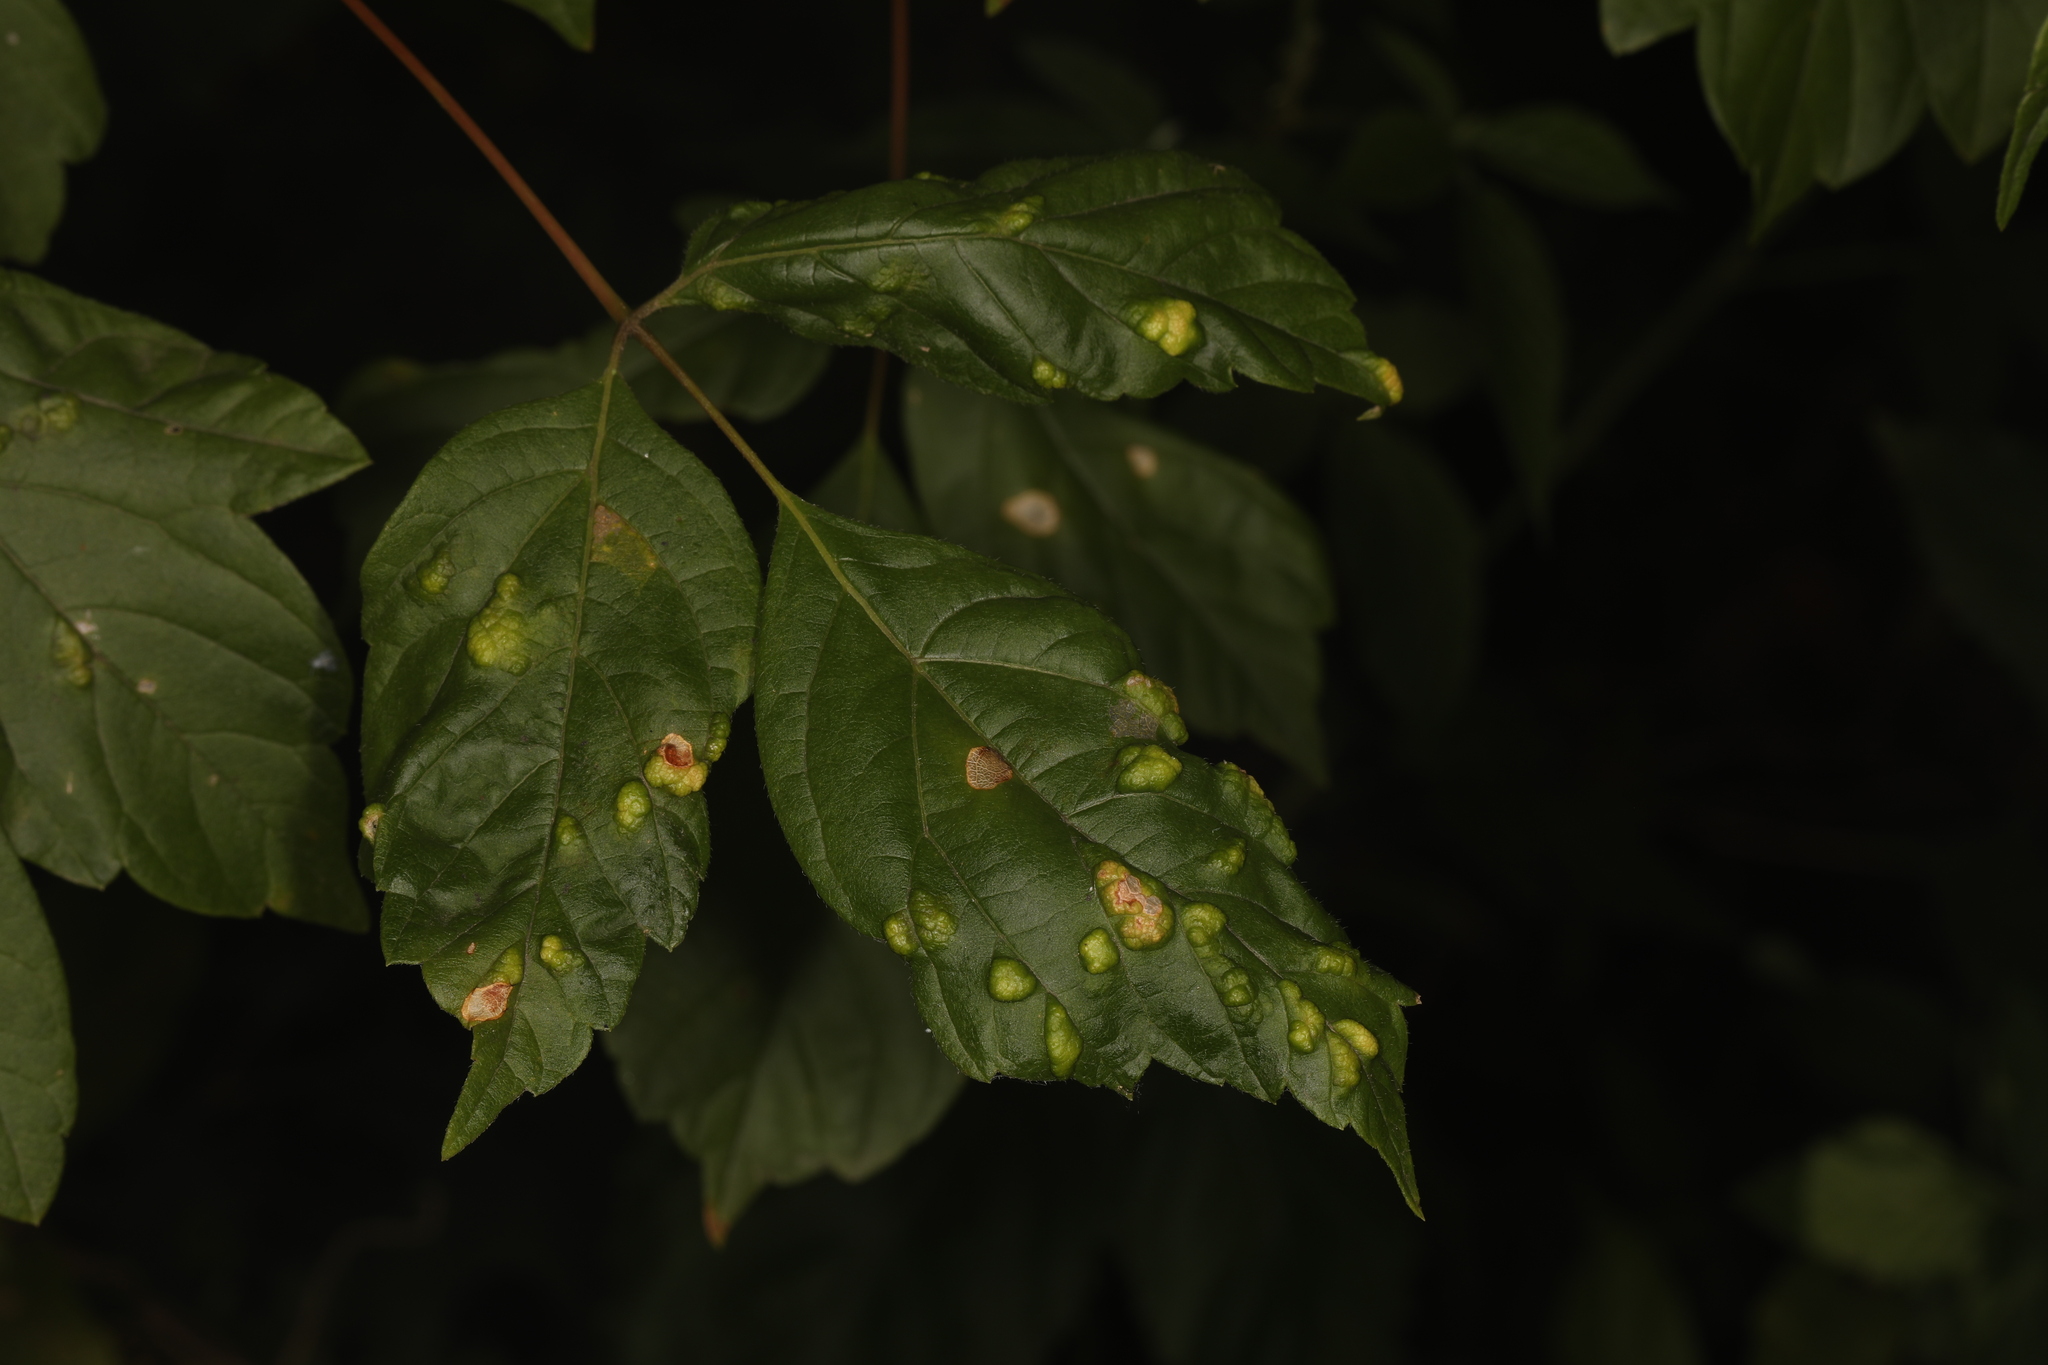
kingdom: Animalia
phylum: Arthropoda
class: Arachnida
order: Trombidiformes
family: Eriophyidae
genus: Aceria
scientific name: Aceria
